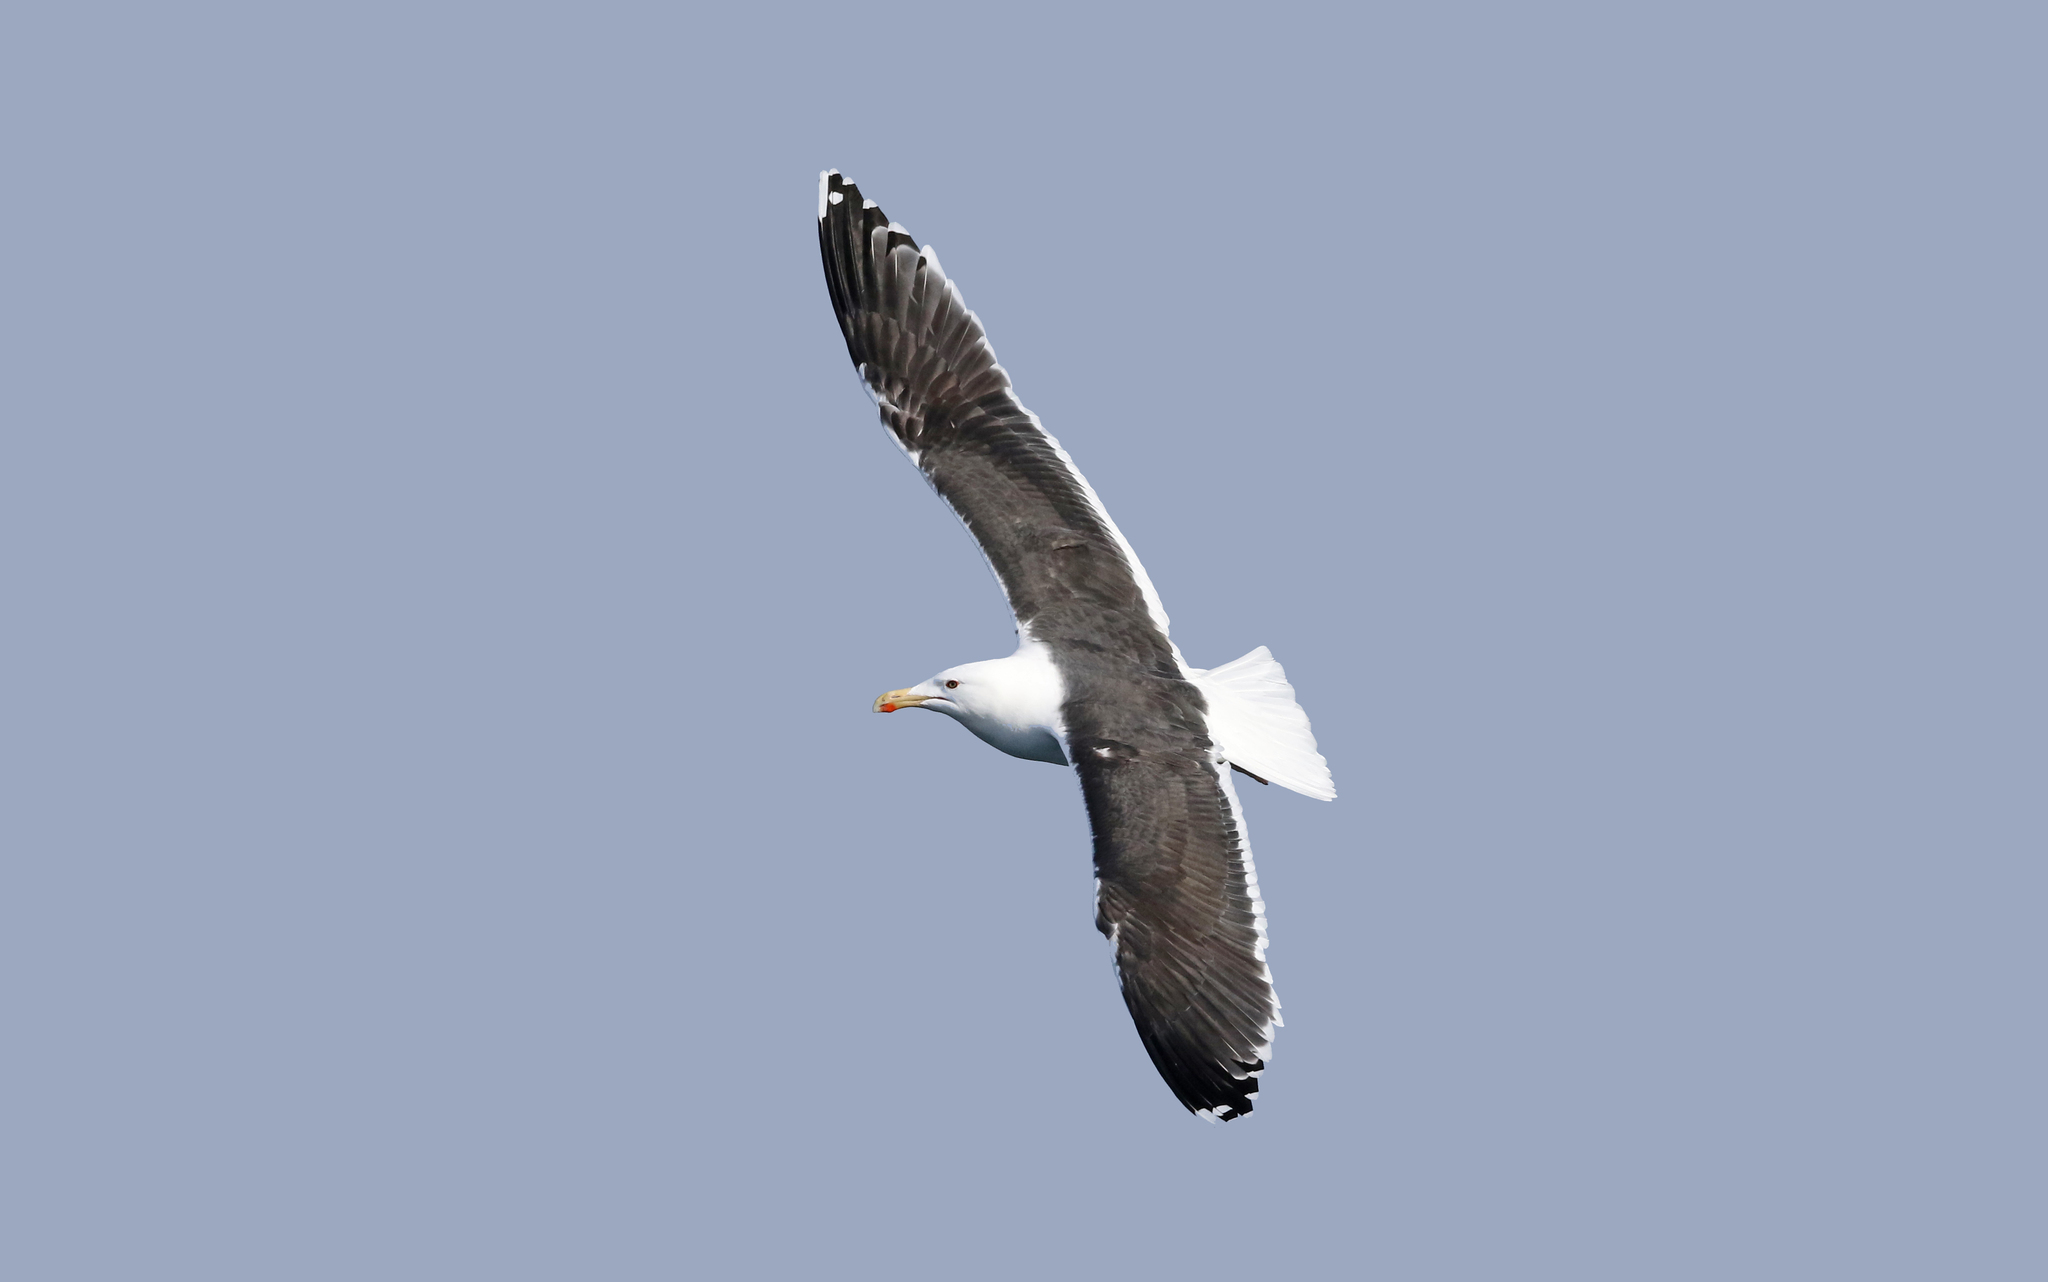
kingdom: Animalia
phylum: Chordata
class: Aves
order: Charadriiformes
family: Laridae
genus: Larus
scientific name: Larus marinus
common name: Great black-backed gull
